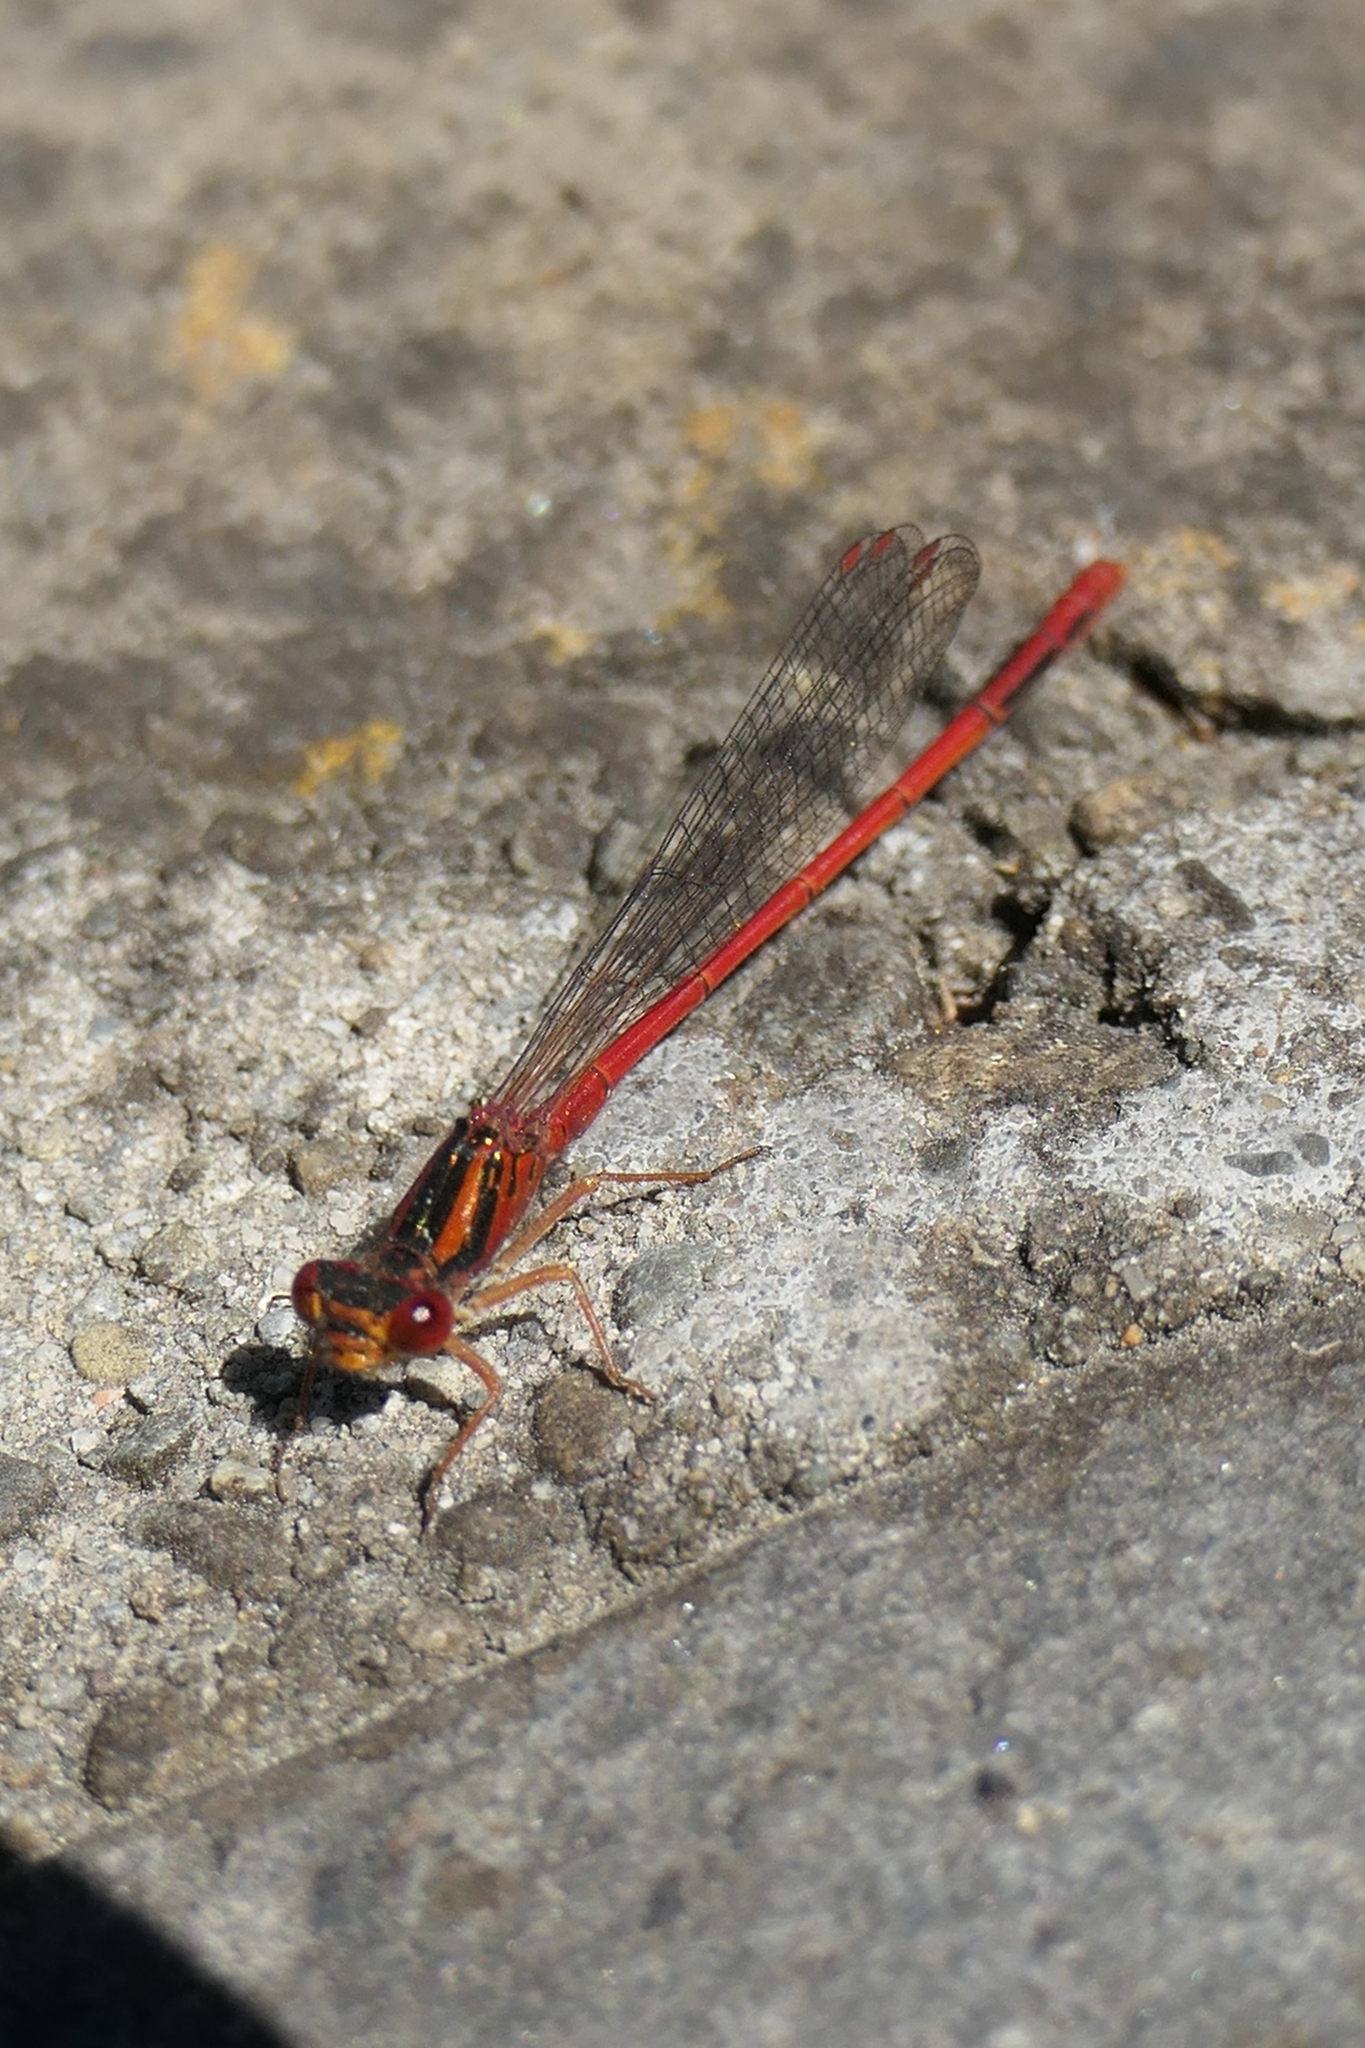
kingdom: Animalia
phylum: Arthropoda
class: Insecta
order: Odonata
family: Coenagrionidae
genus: Xanthocnemis
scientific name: Xanthocnemis zealandica
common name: Common redcoat damselfly
